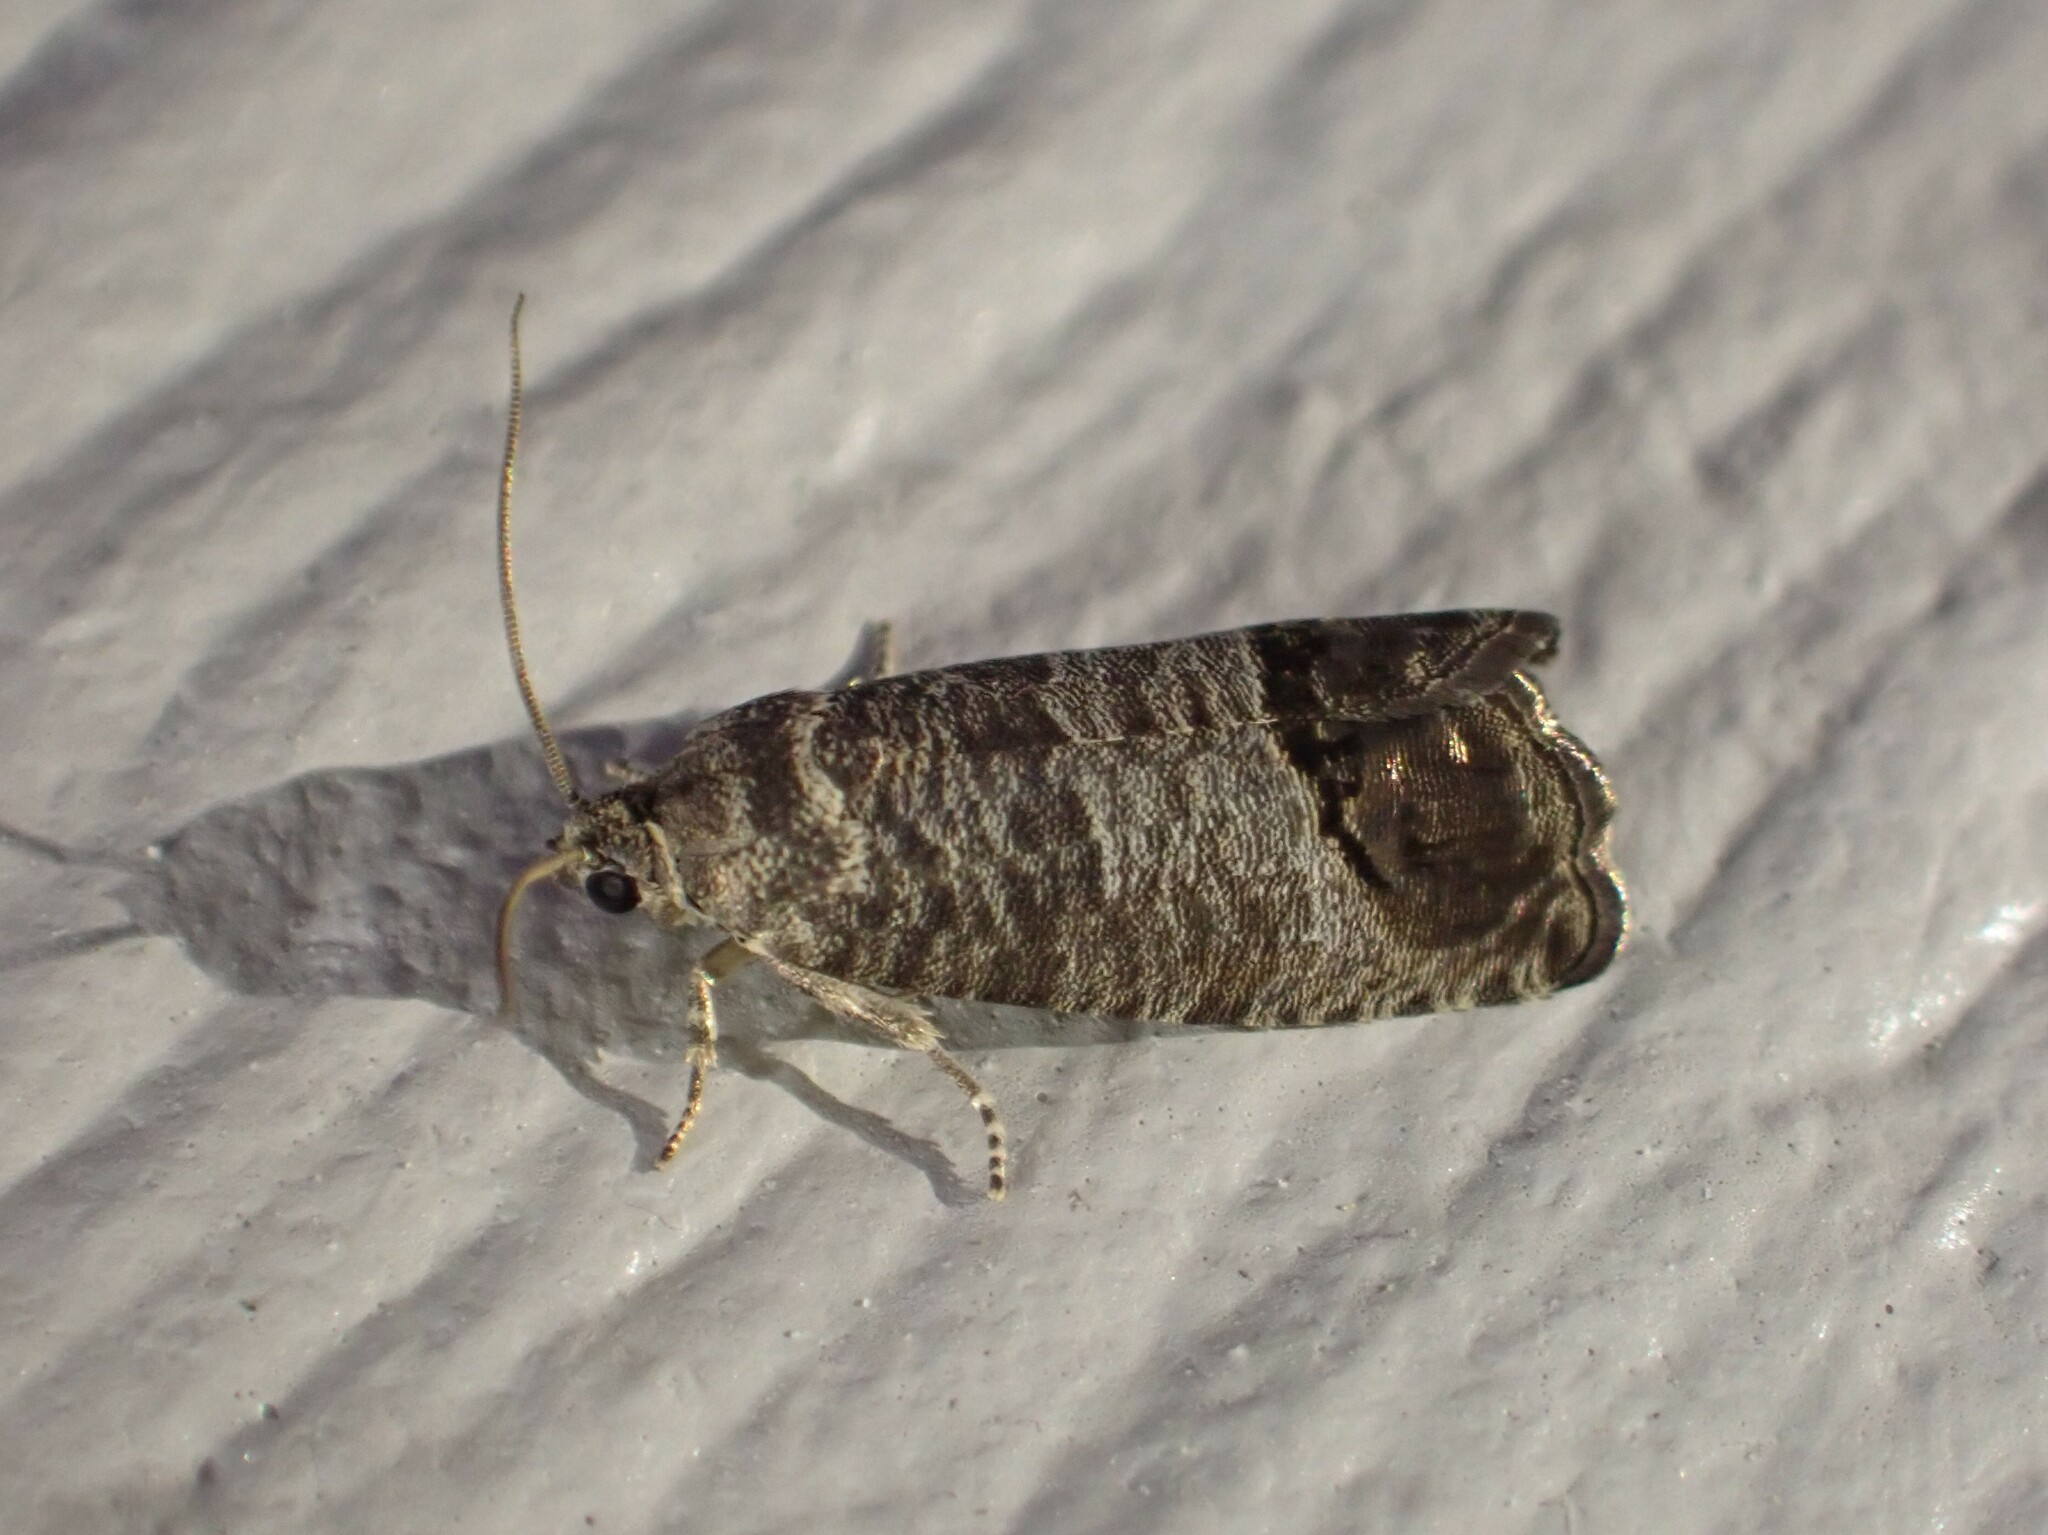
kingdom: Animalia
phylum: Arthropoda
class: Insecta
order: Lepidoptera
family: Tortricidae
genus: Cydia
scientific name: Cydia pomonella
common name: Codling moth
